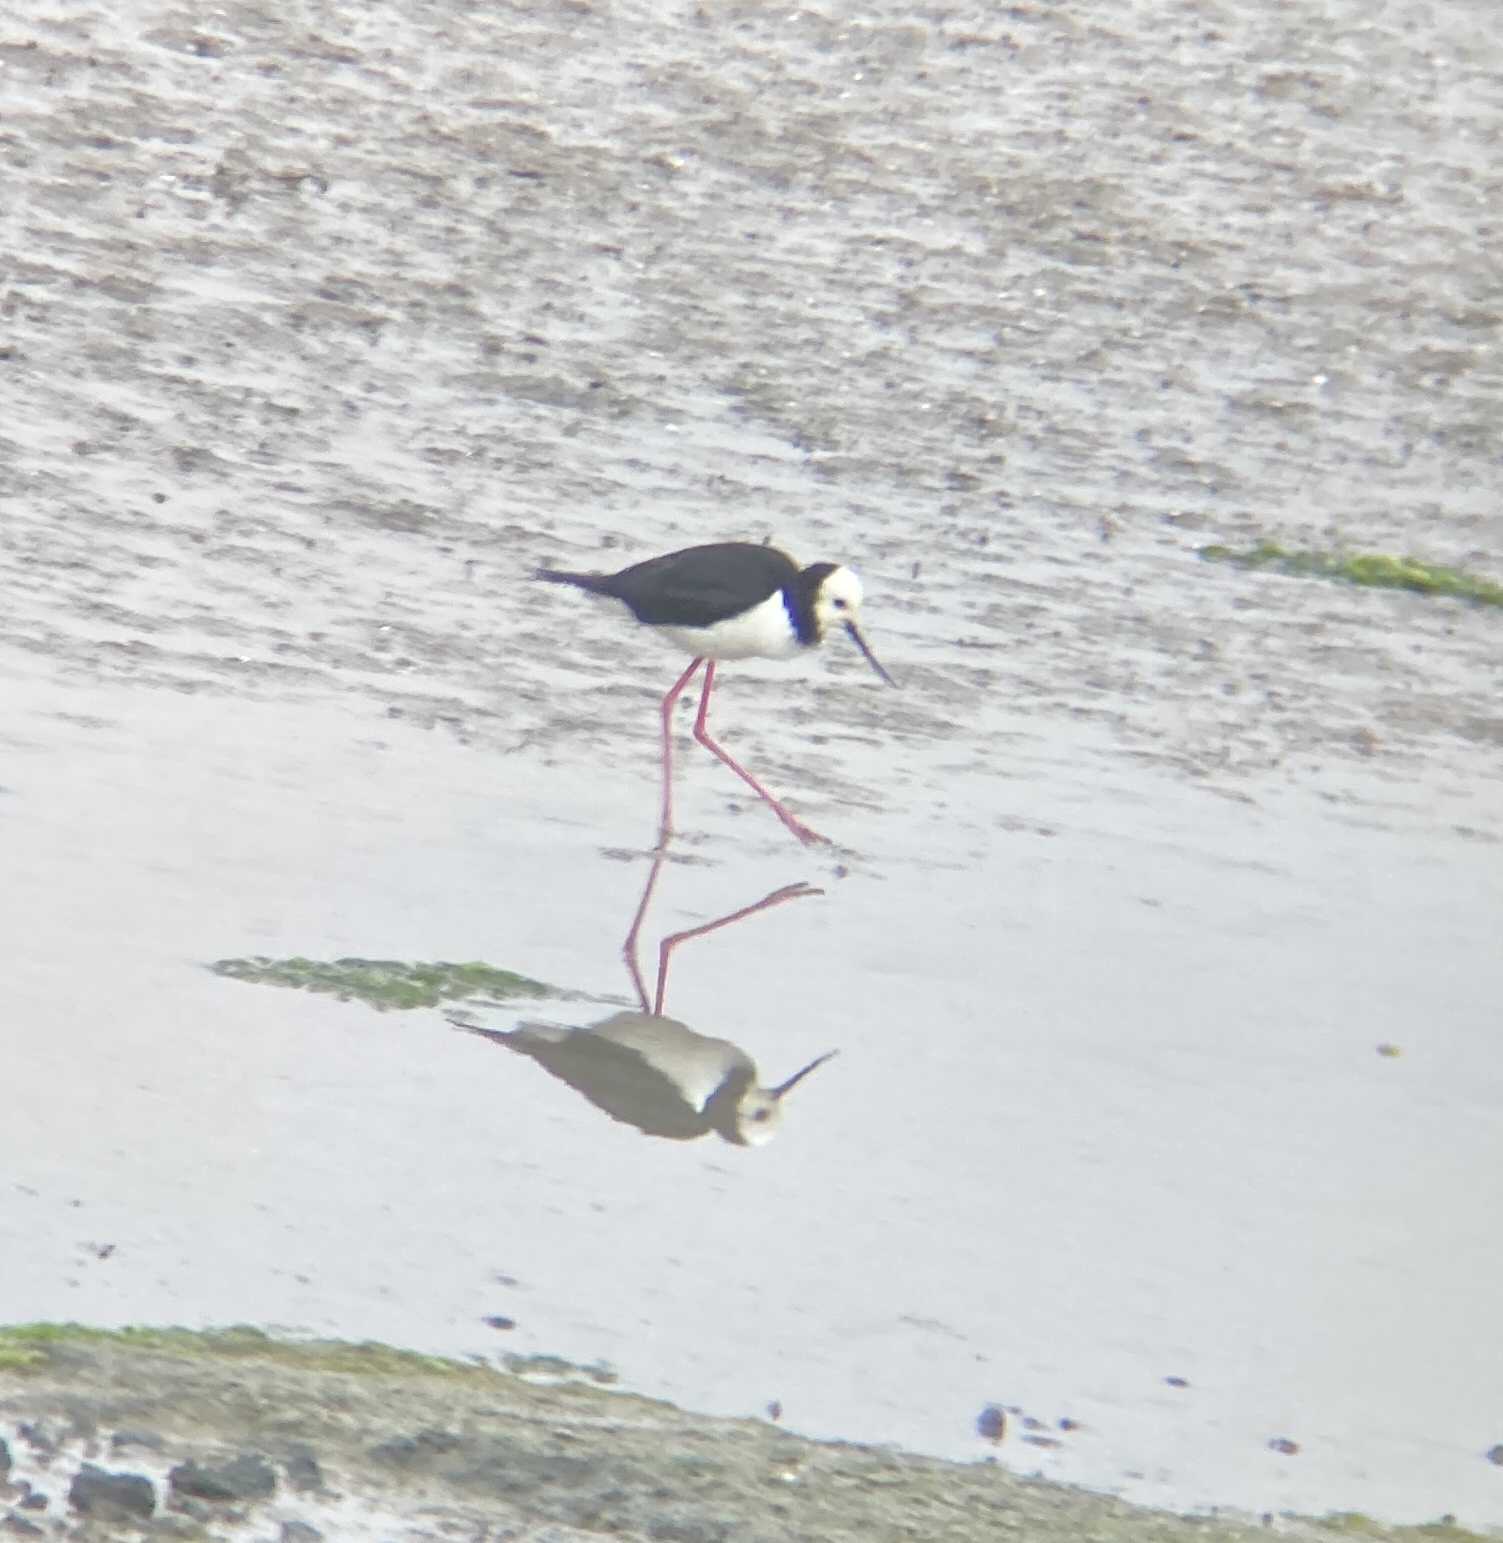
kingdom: Animalia
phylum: Chordata
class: Aves
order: Charadriiformes
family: Recurvirostridae
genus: Himantopus
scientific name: Himantopus leucocephalus
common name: White-headed stilt
